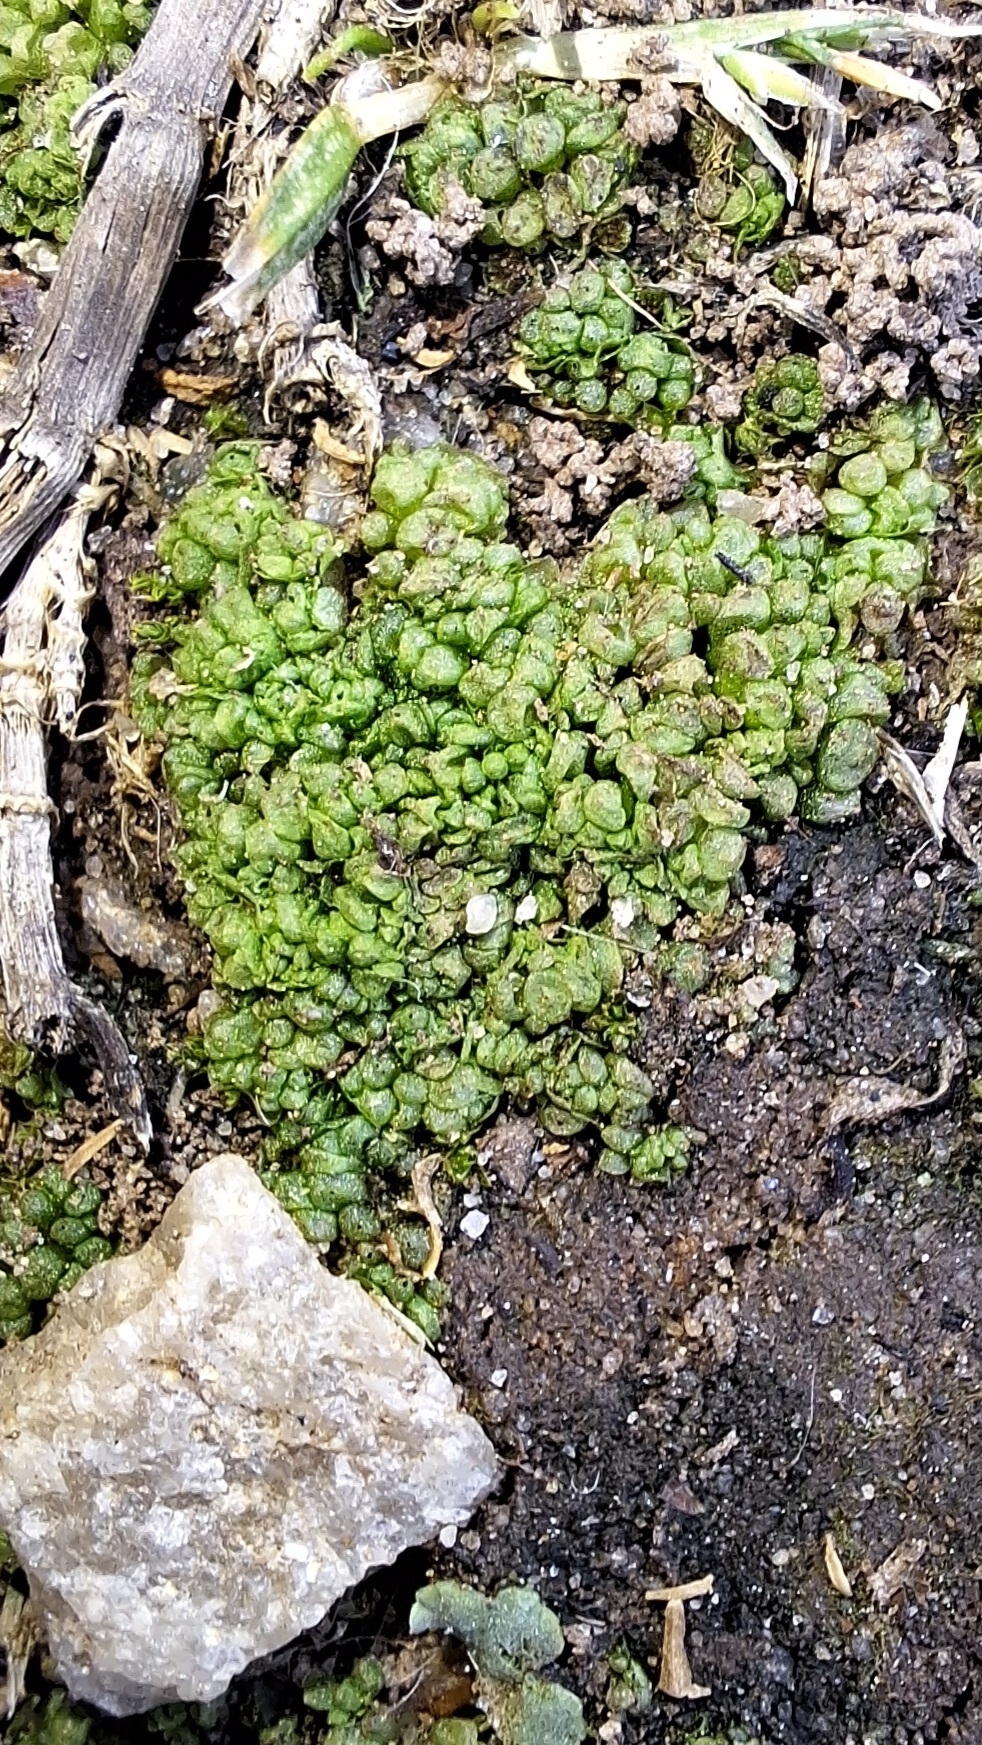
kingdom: Plantae
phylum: Marchantiophyta
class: Marchantiopsida
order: Sphaerocarpales
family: Sphaerocarpaceae
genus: Sphaerocarpos
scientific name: Sphaerocarpos texanus
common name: Texas balloonwort
